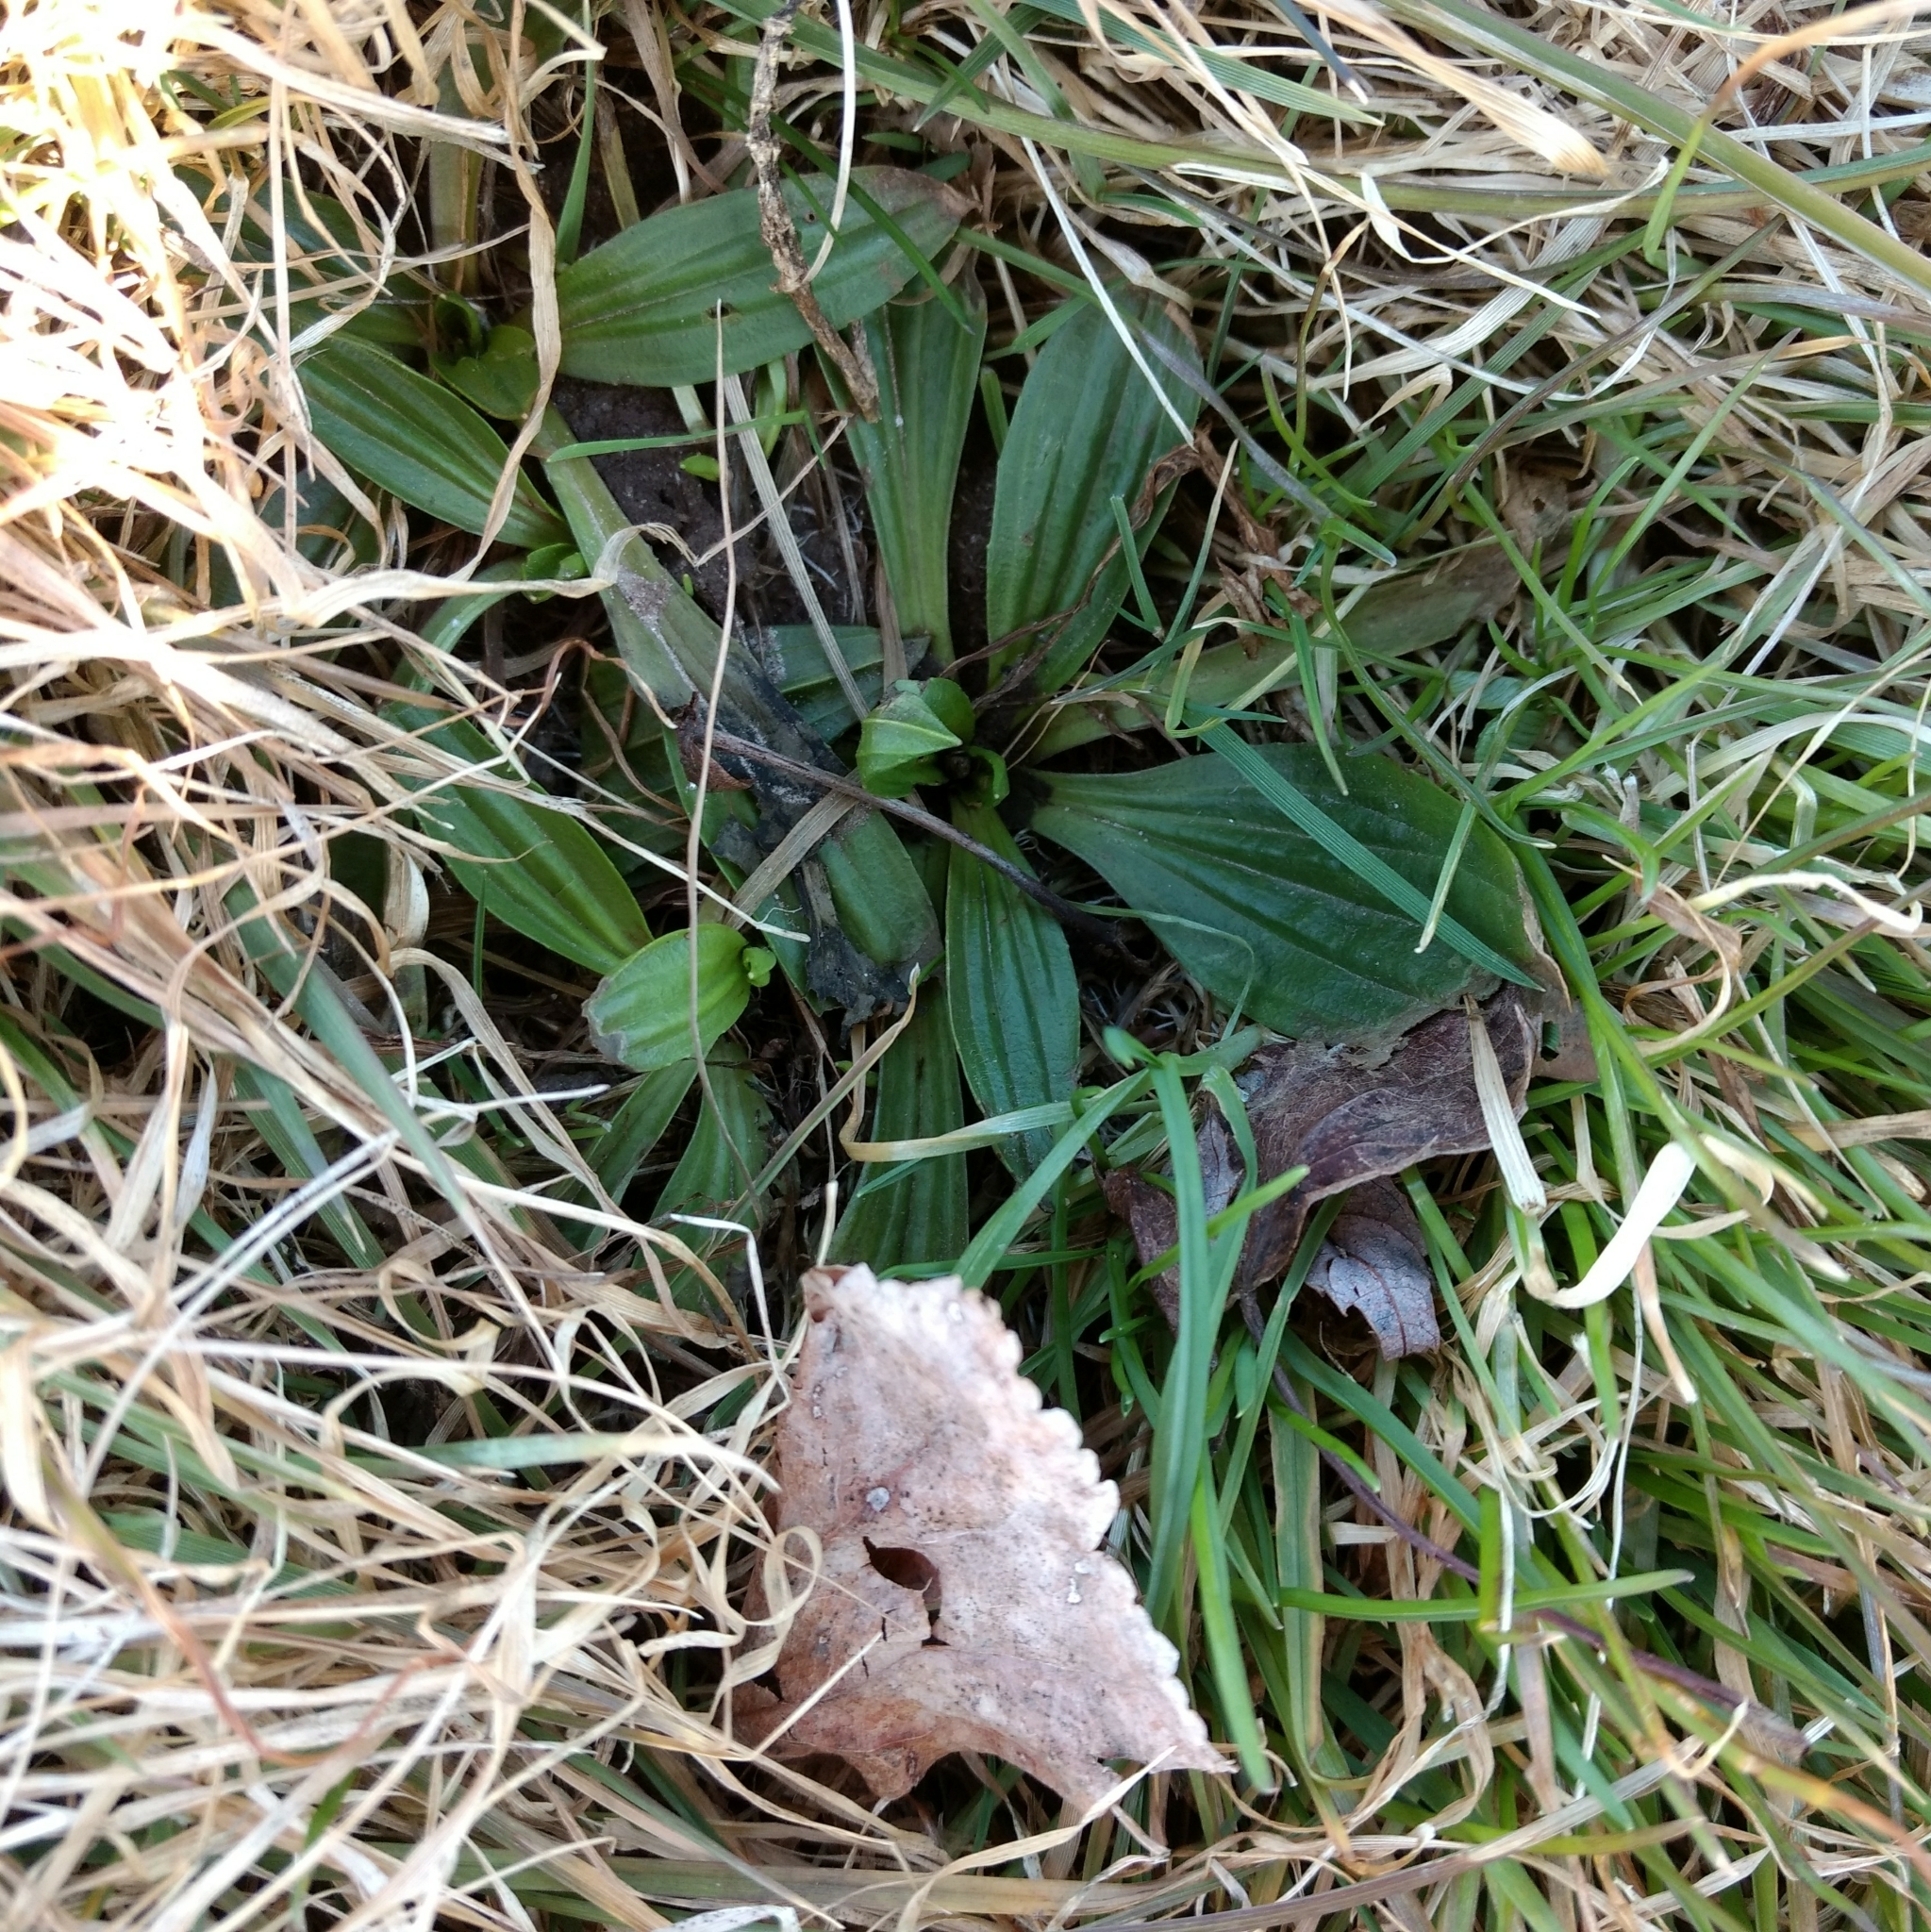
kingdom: Plantae
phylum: Tracheophyta
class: Magnoliopsida
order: Lamiales
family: Plantaginaceae
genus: Plantago
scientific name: Plantago lanceolata
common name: Ribwort plantain
